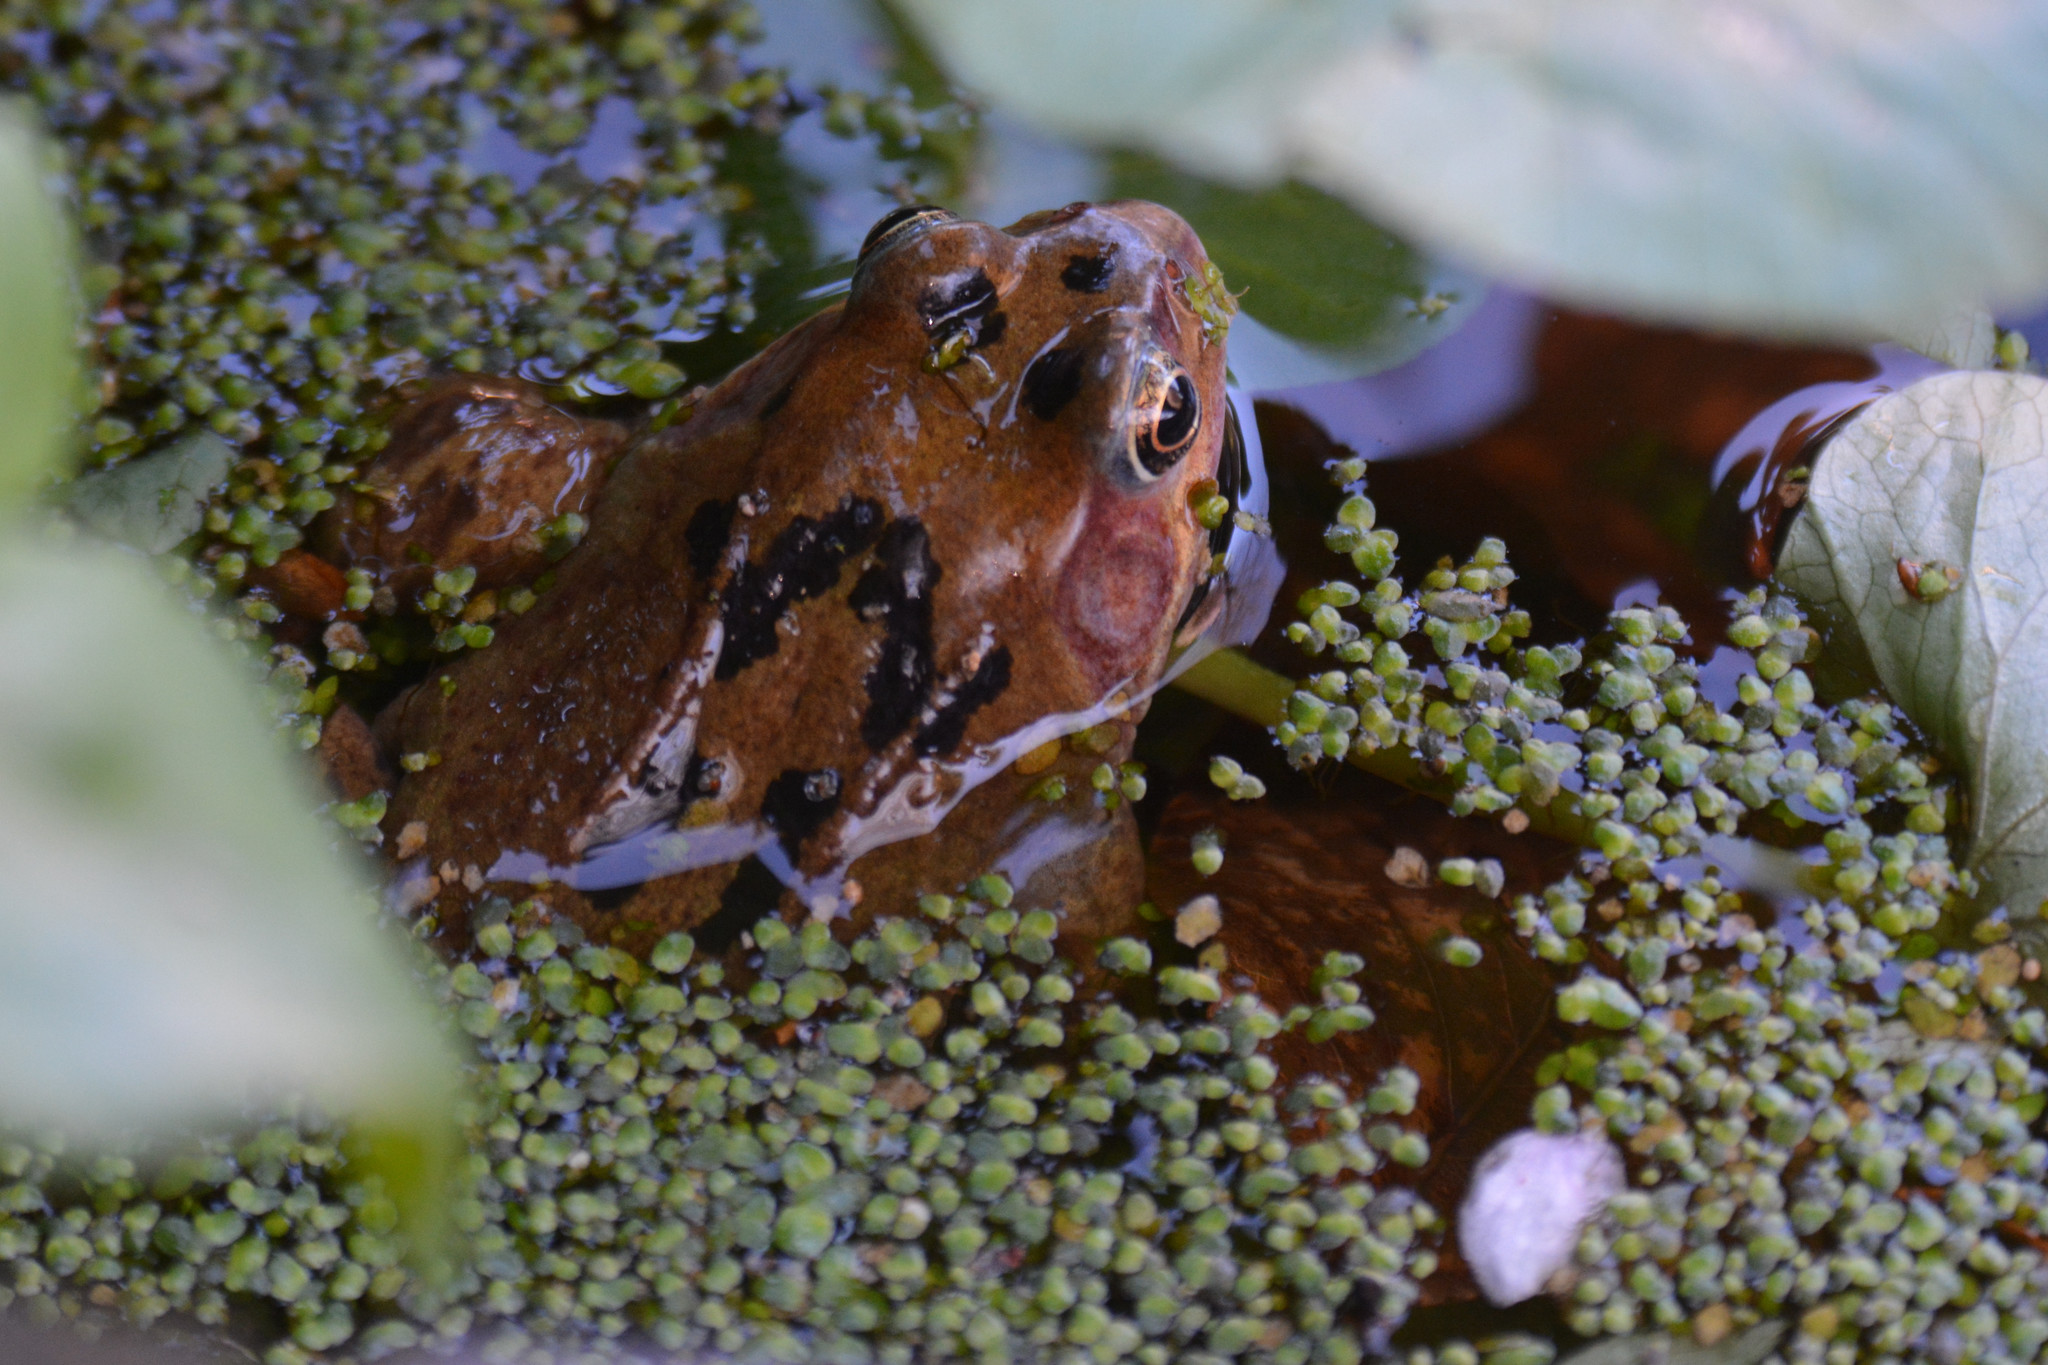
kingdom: Animalia
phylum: Chordata
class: Amphibia
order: Anura
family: Ranidae
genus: Rana
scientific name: Rana temporaria
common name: Common frog
